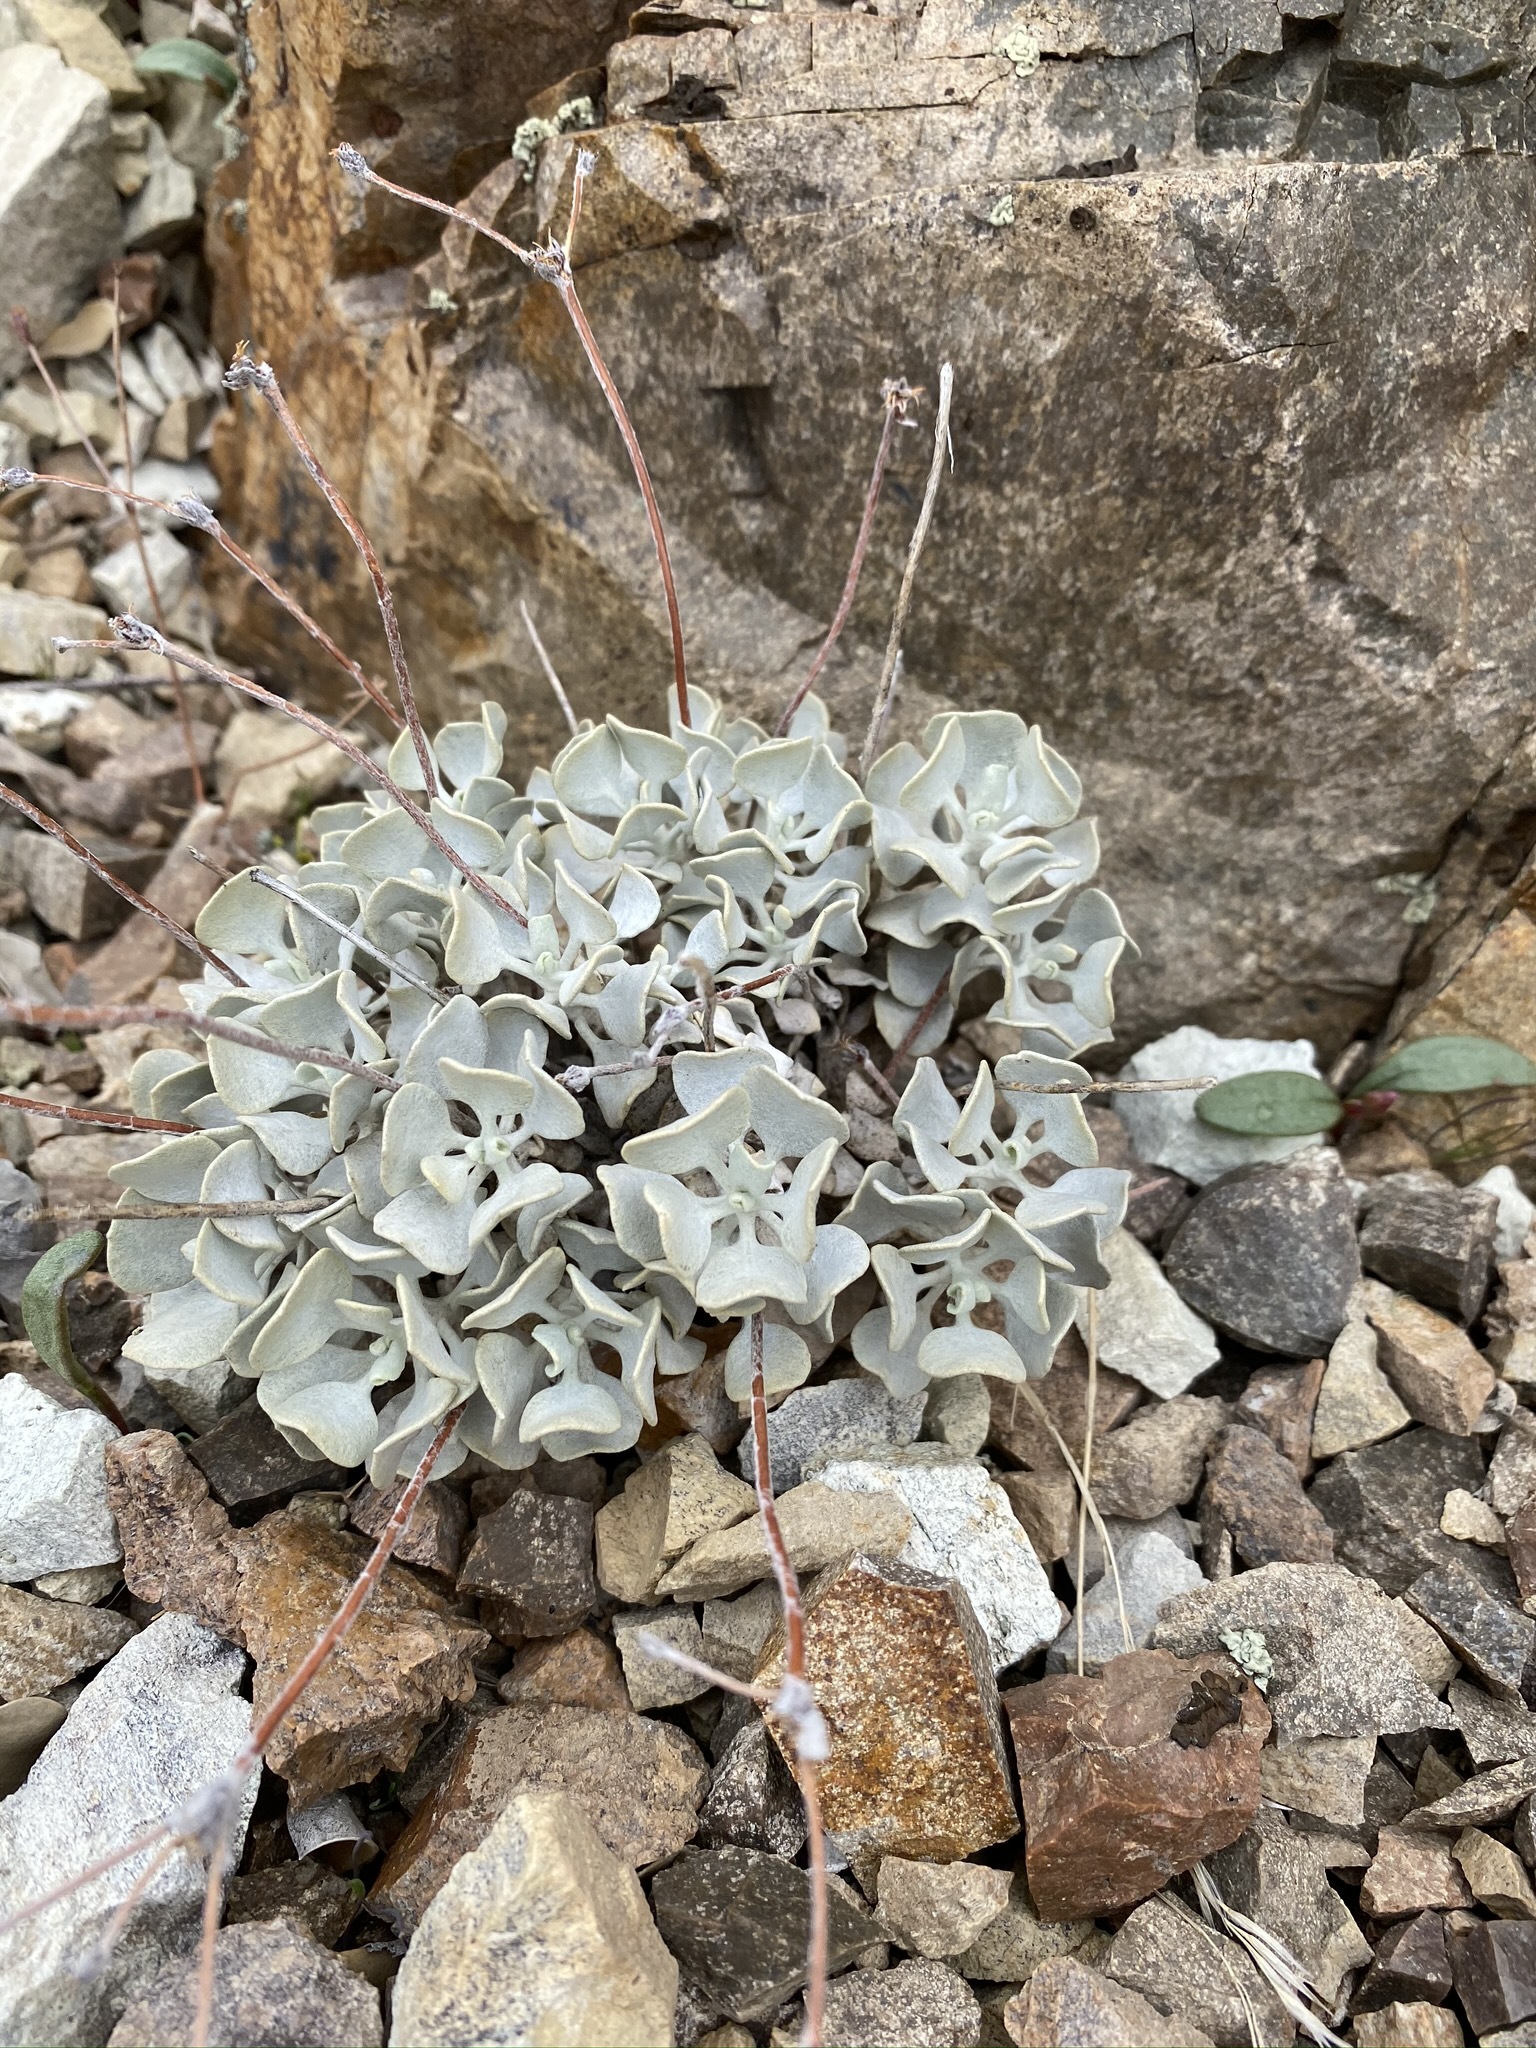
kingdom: Plantae
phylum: Tracheophyta
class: Magnoliopsida
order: Caryophyllales
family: Polygonaceae
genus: Eriogonum
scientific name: Eriogonum saxatile
